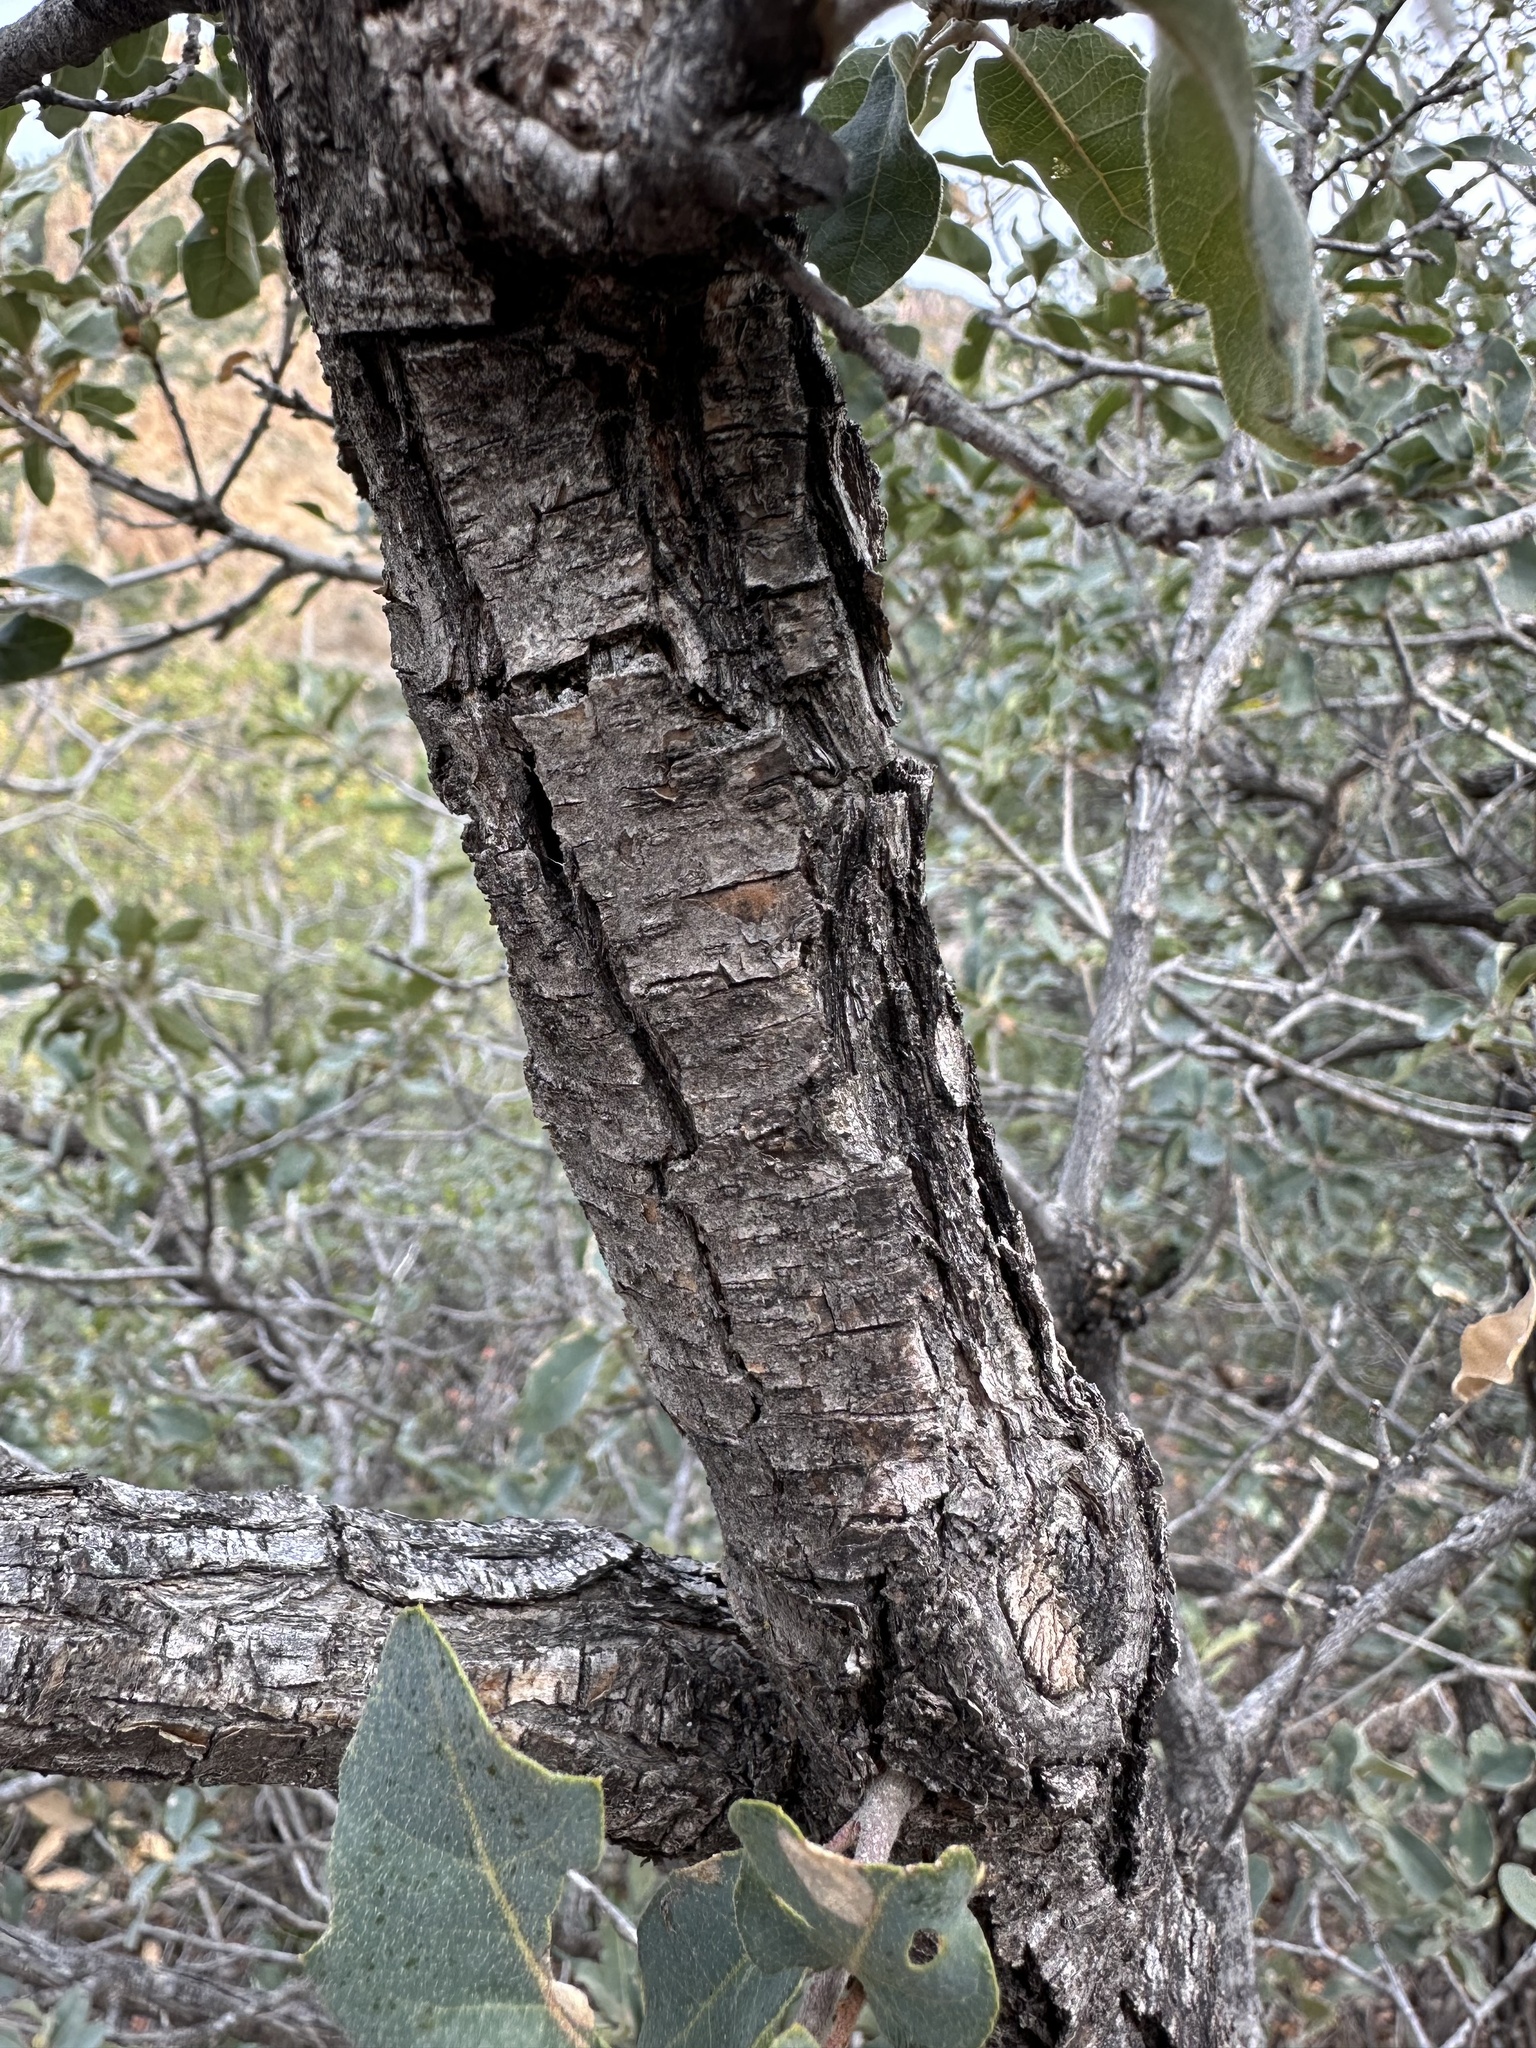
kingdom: Plantae
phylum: Tracheophyta
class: Magnoliopsida
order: Fagales
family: Fagaceae
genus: Quercus
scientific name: Quercus grisea
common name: Gray oak
